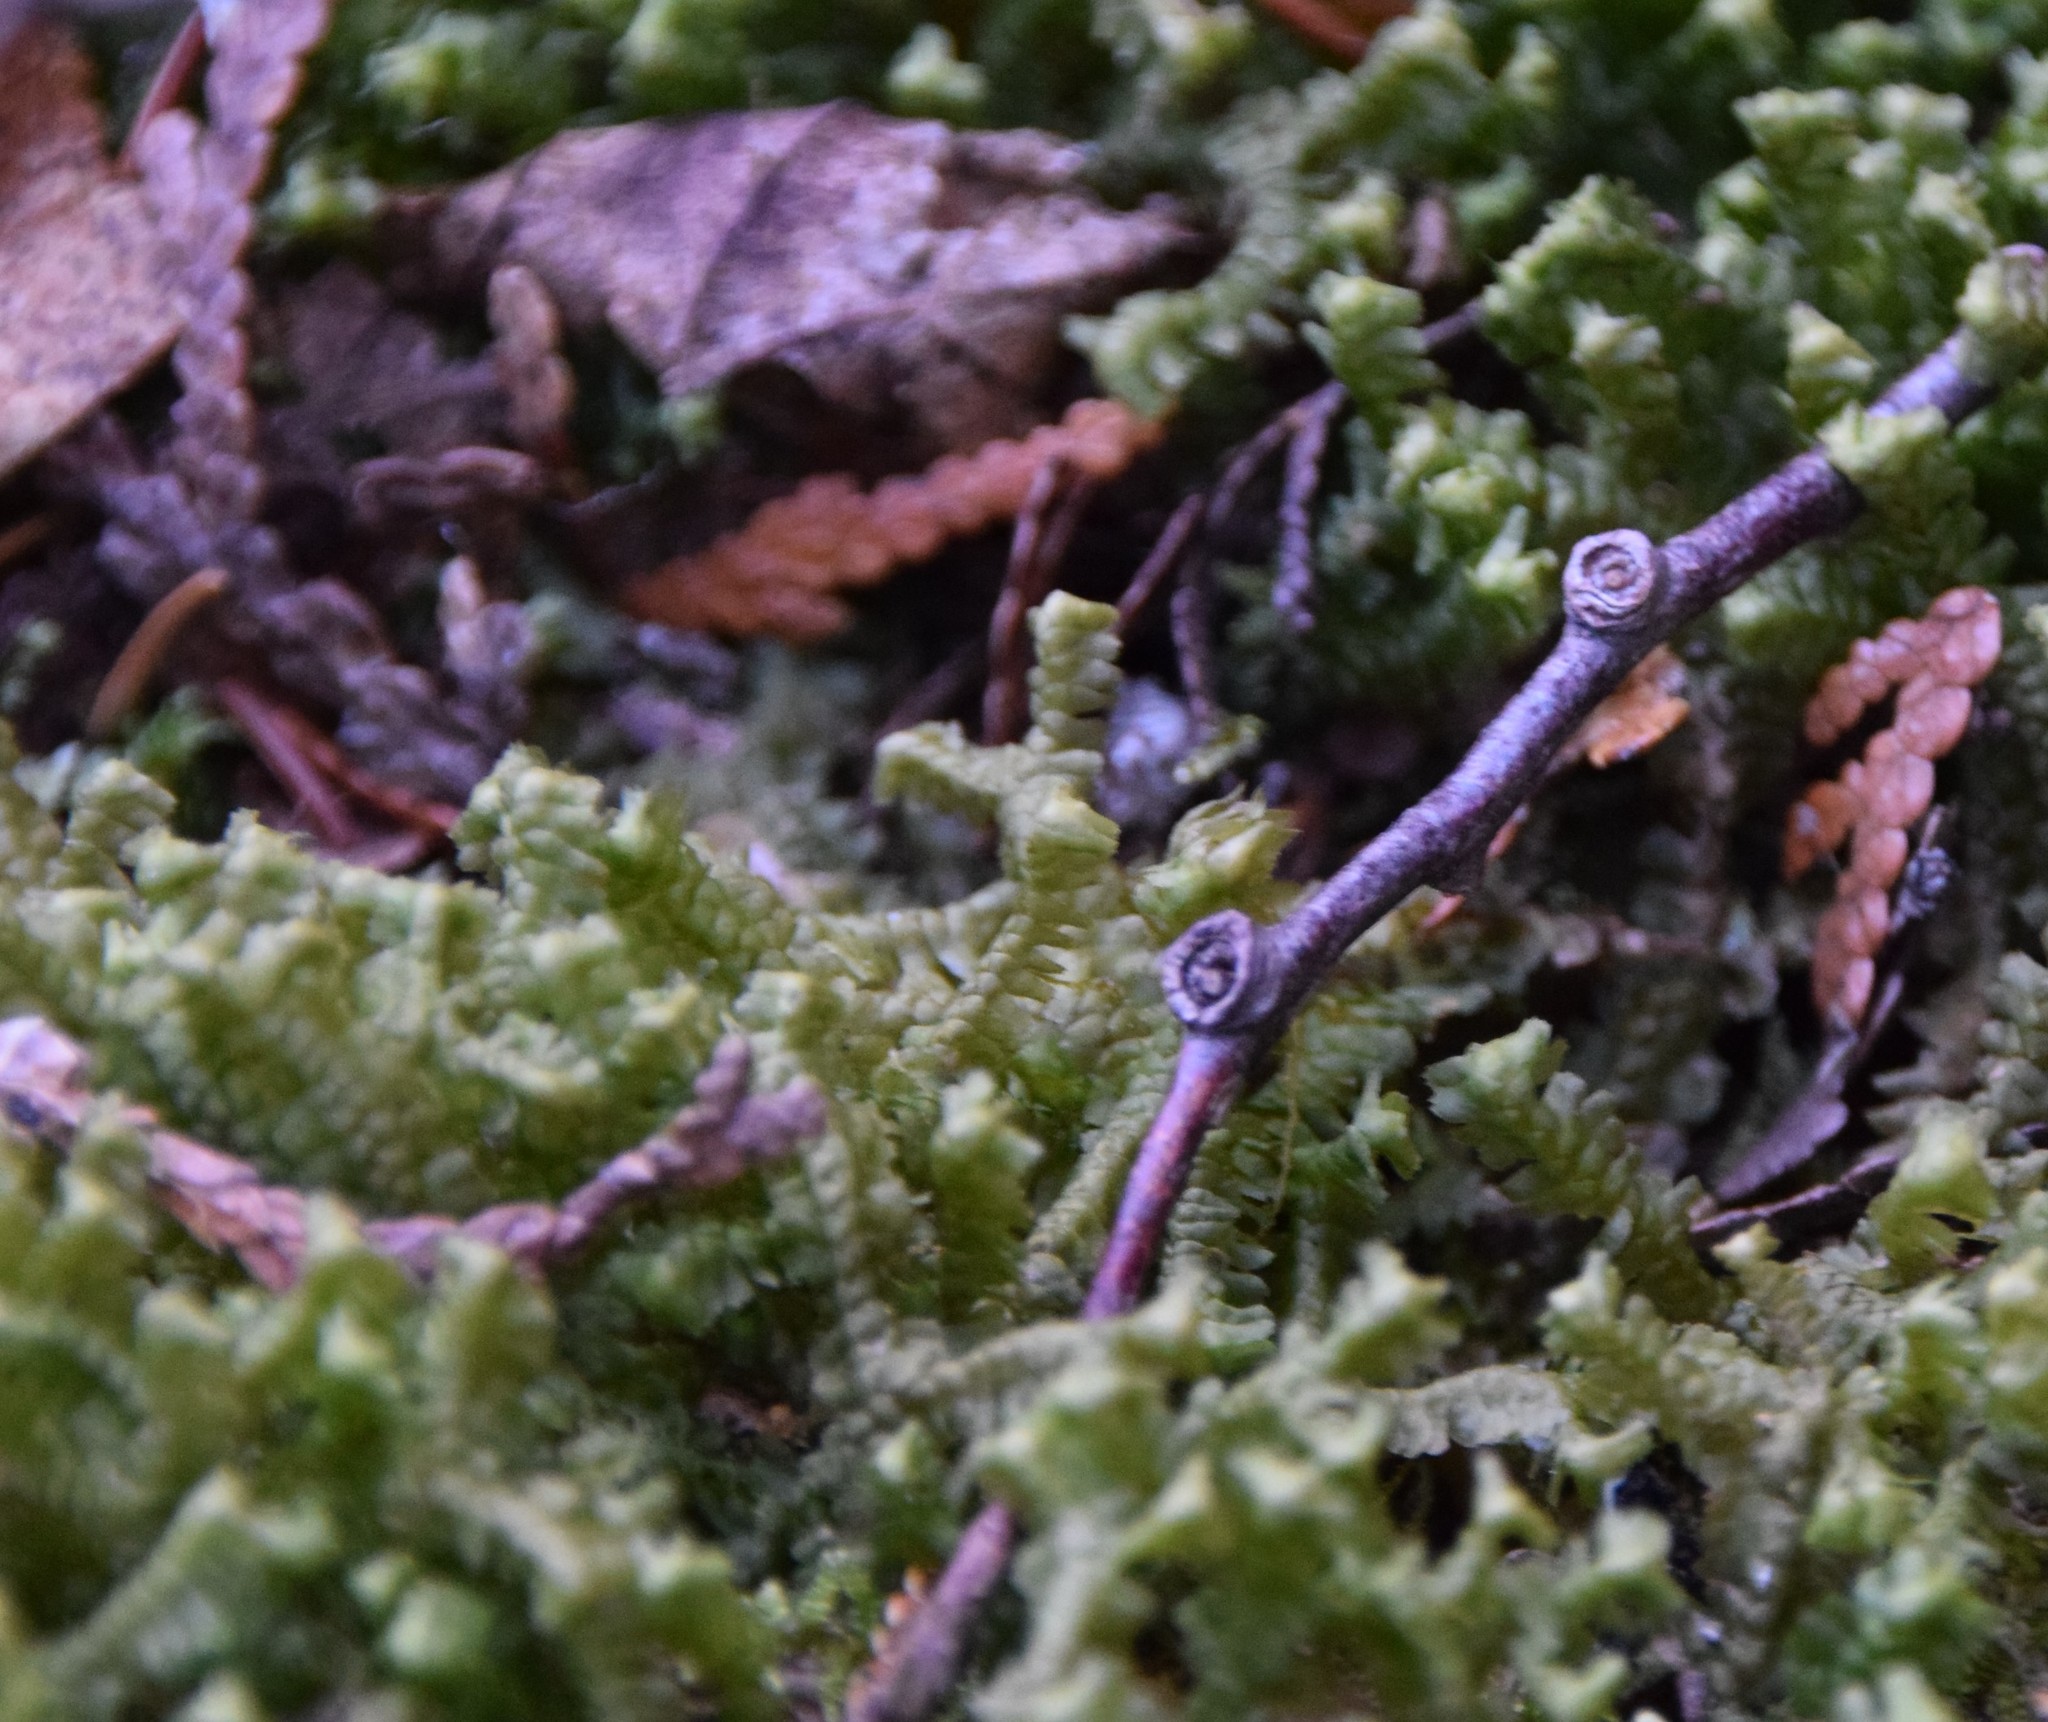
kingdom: Plantae
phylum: Marchantiophyta
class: Jungermanniopsida
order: Jungermanniales
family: Lepidoziaceae
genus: Bazzania
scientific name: Bazzania trilobata
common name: Three-lobed whipwort
